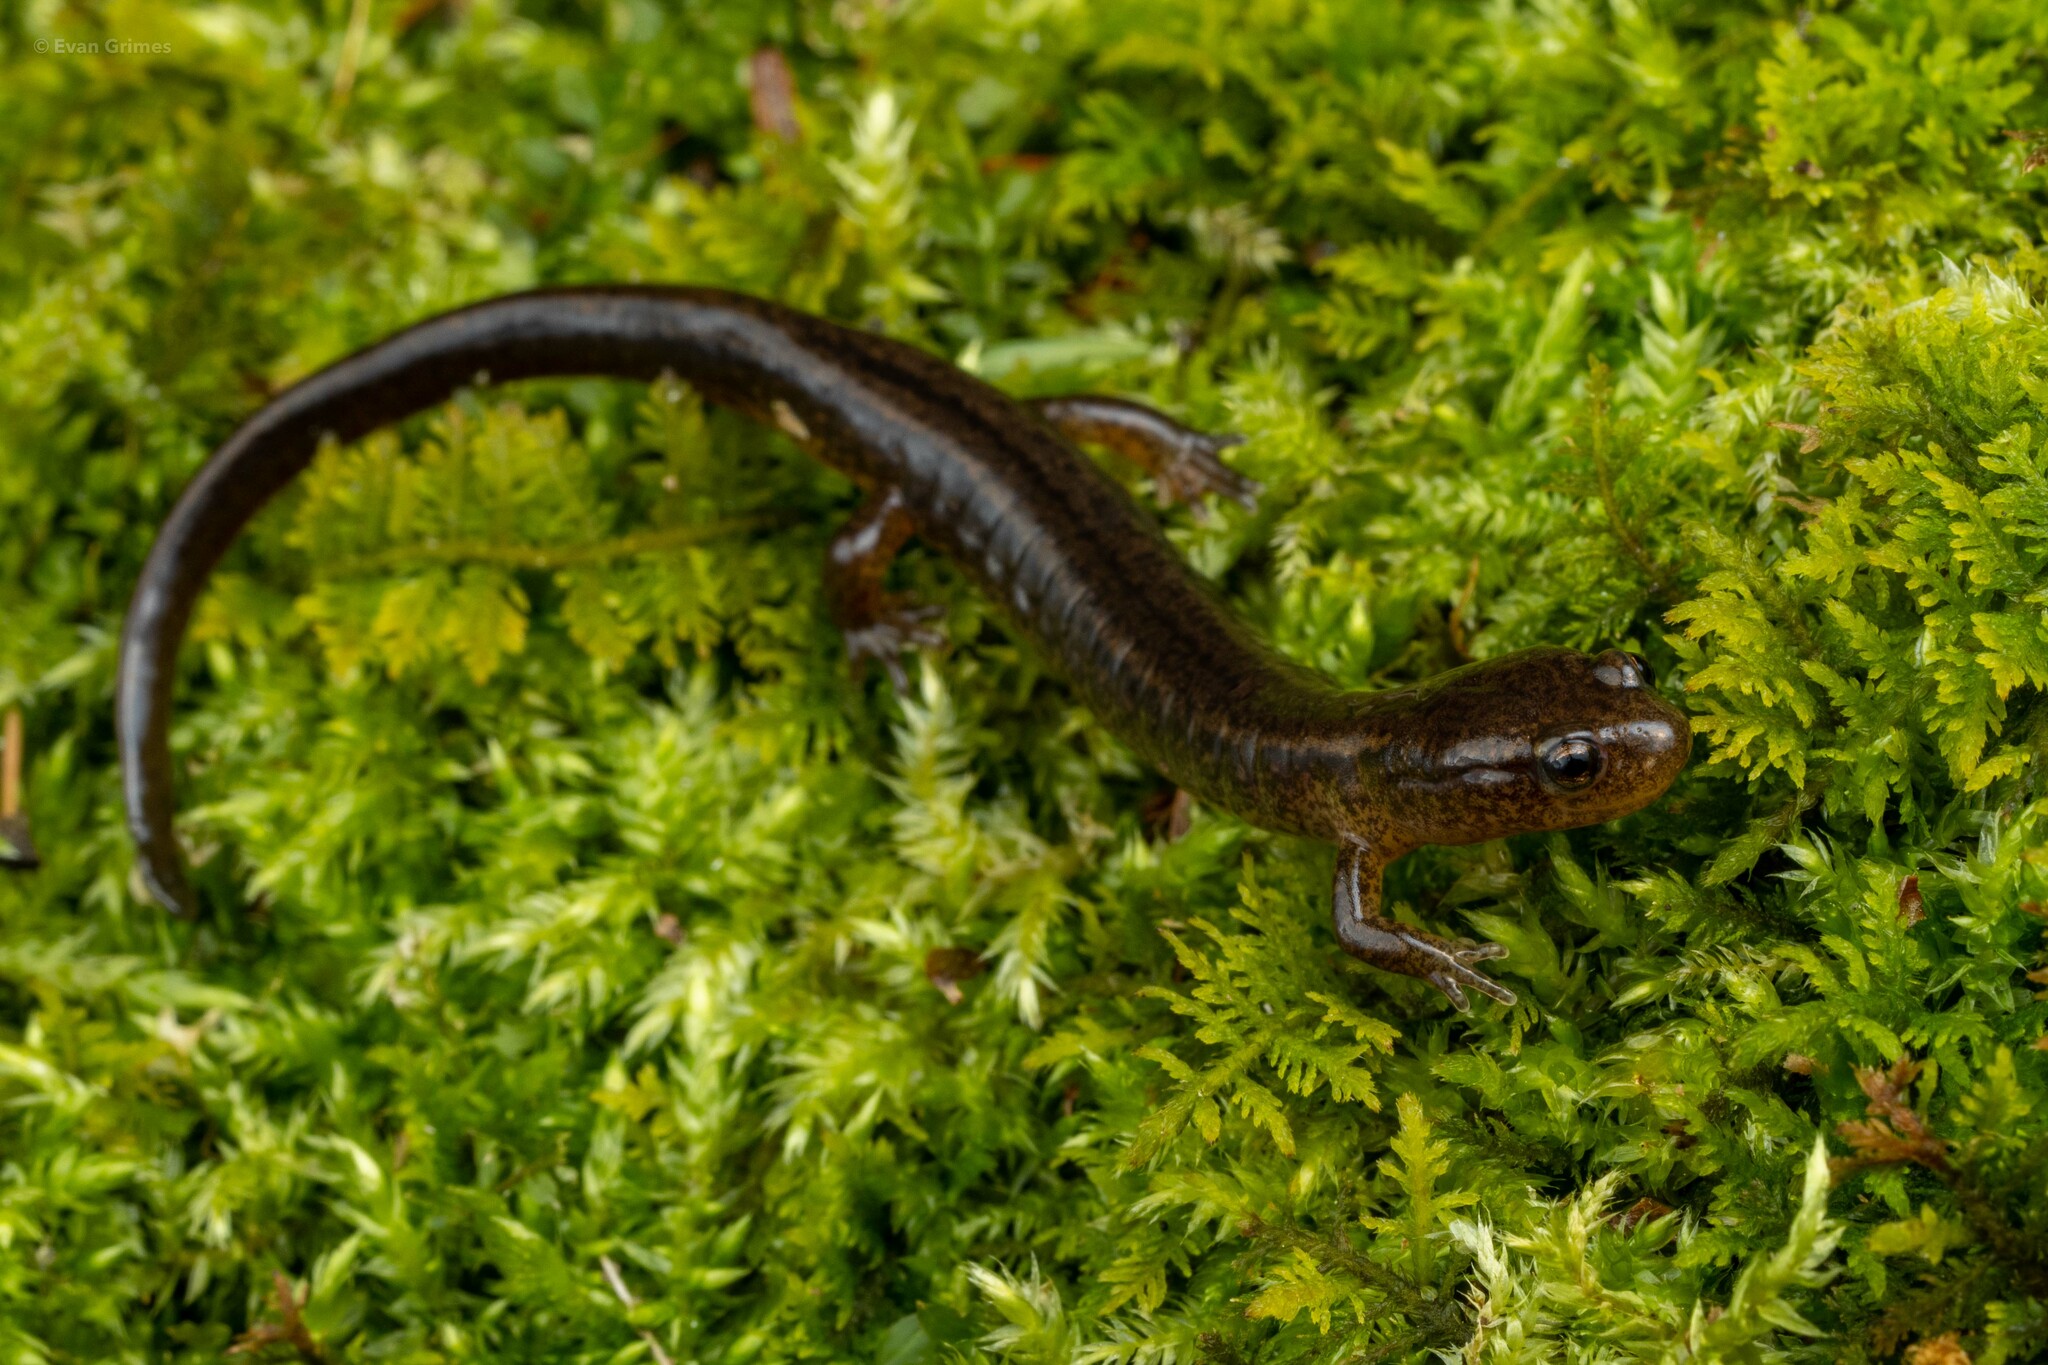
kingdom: Animalia
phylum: Chordata
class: Amphibia
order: Caudata
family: Plethodontidae
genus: Eurycea
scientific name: Eurycea bislineata
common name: Northern two-lined salamander
